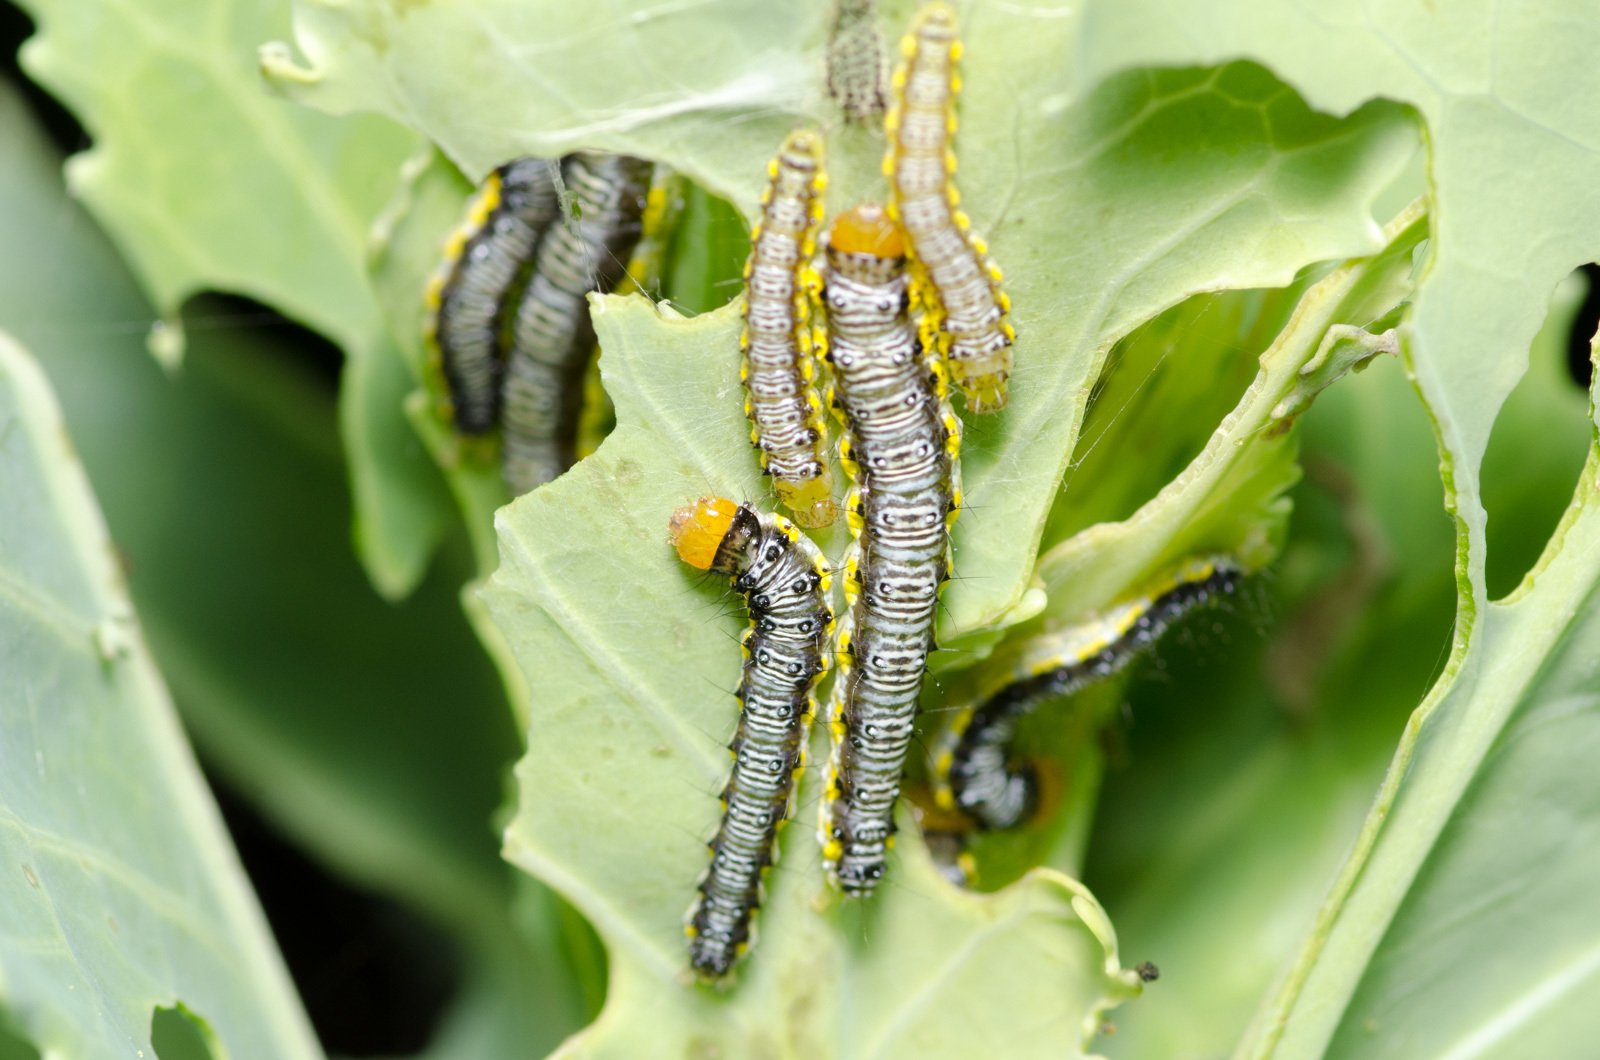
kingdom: Animalia
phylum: Arthropoda
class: Insecta
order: Lepidoptera
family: Crambidae
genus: Evergestis
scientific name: Evergestis rimosalis
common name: Cross-striped cabbageworm moth
